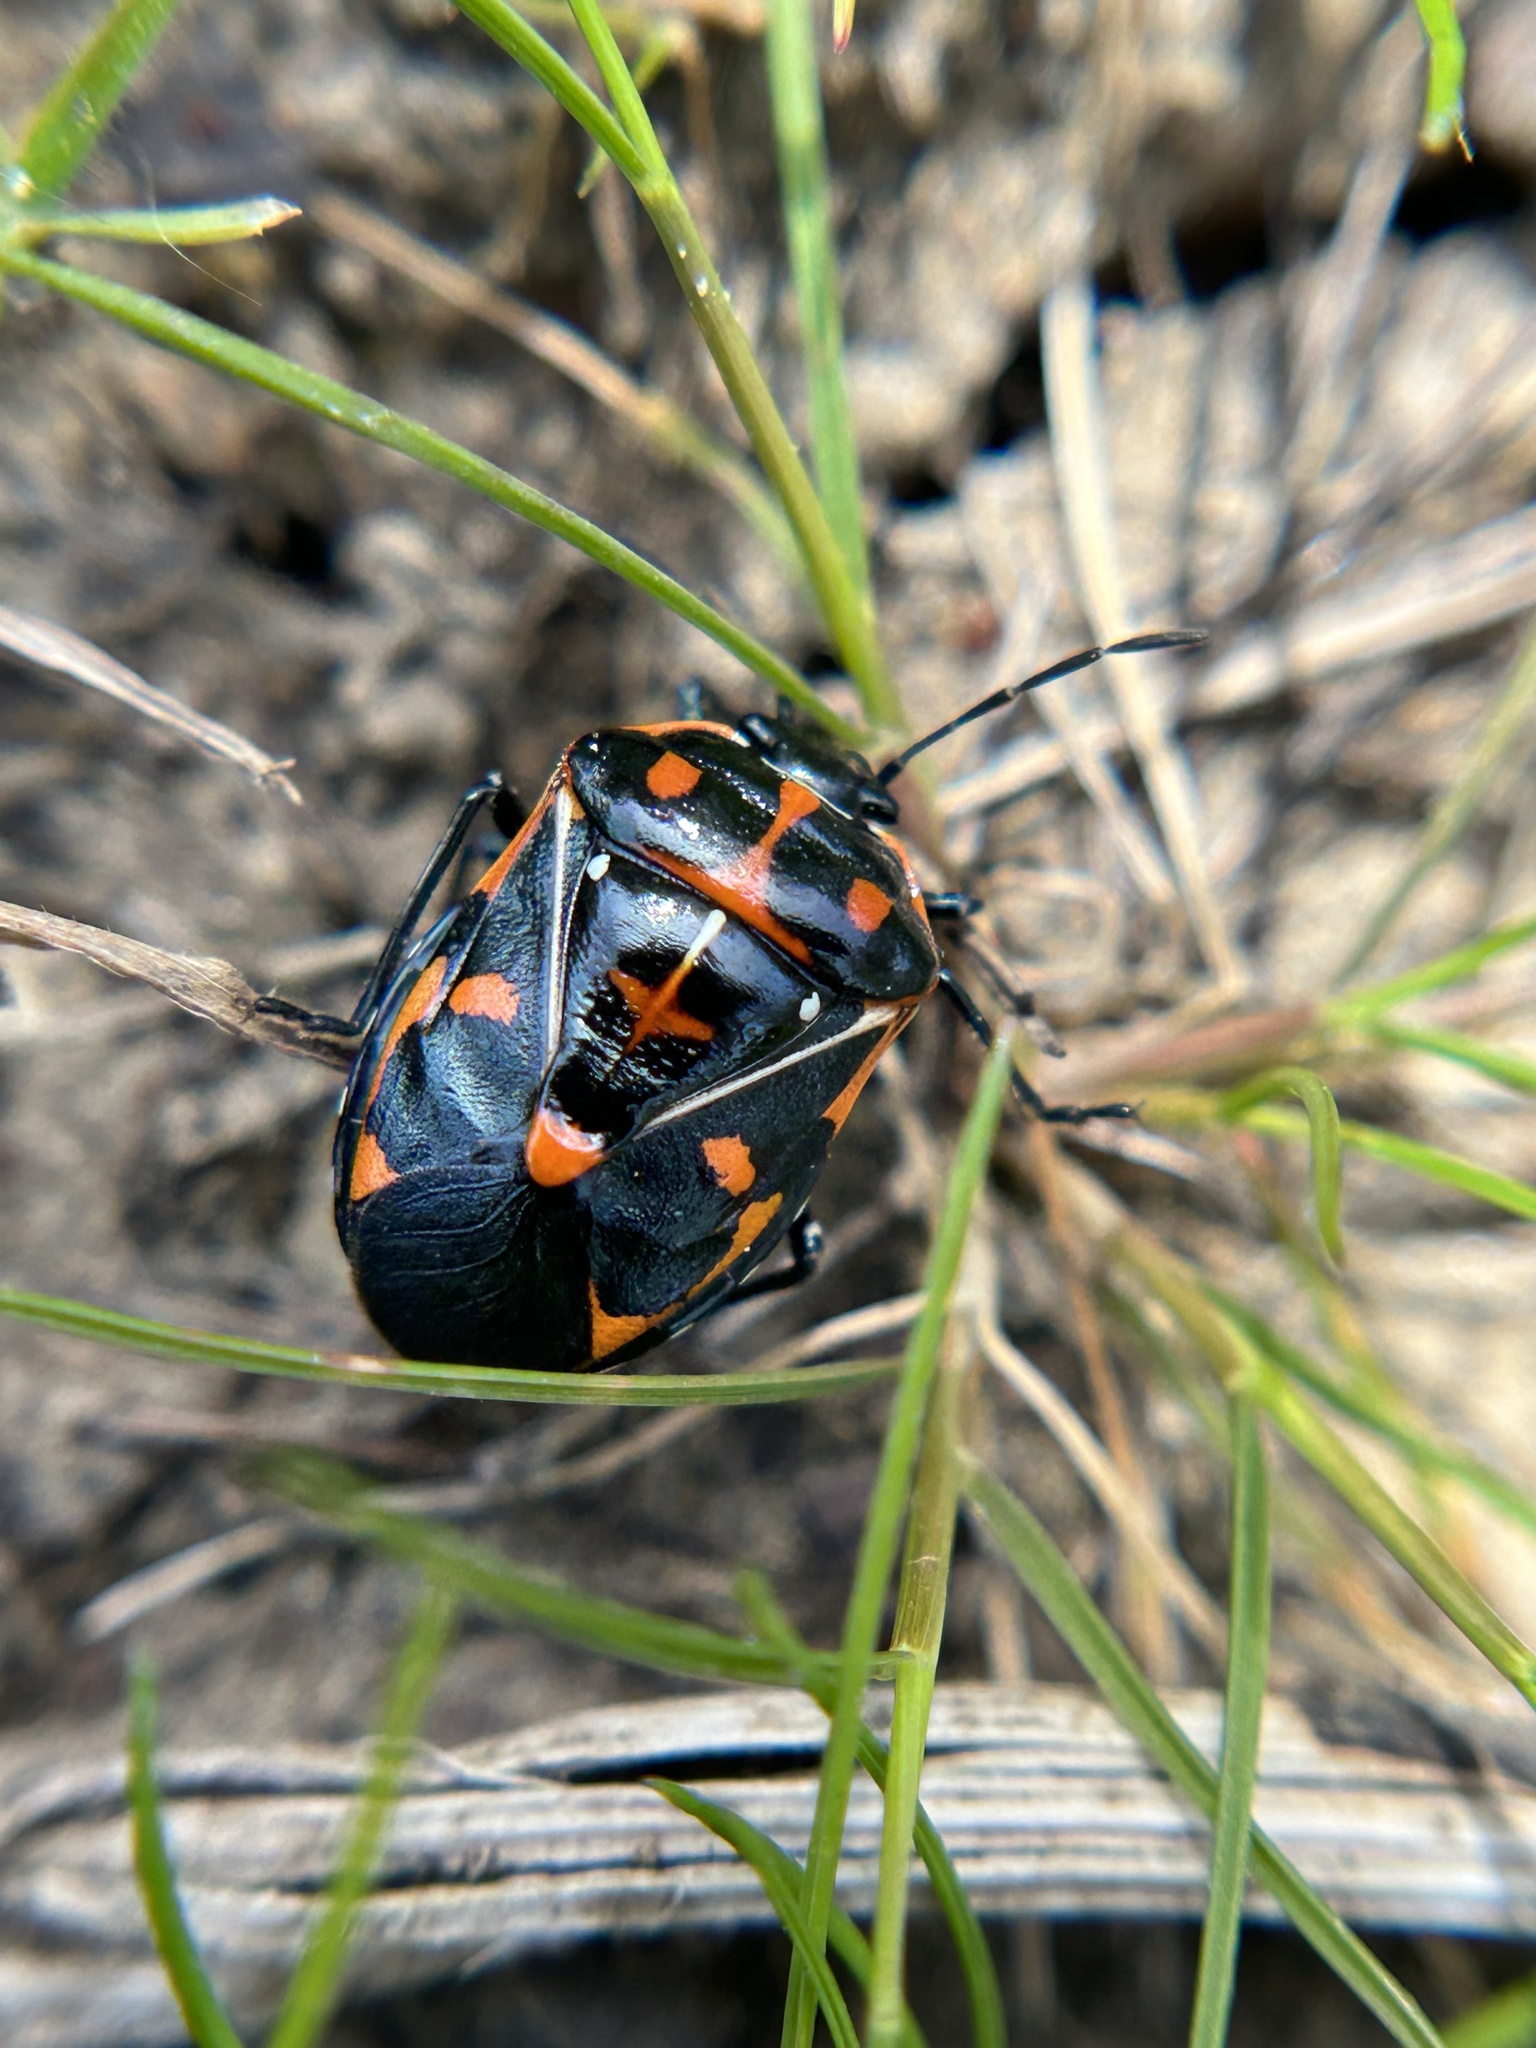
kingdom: Animalia
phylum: Arthropoda
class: Insecta
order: Hemiptera
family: Pentatomidae
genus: Murgantia
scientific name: Murgantia histrionica
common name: Harlequin bug
